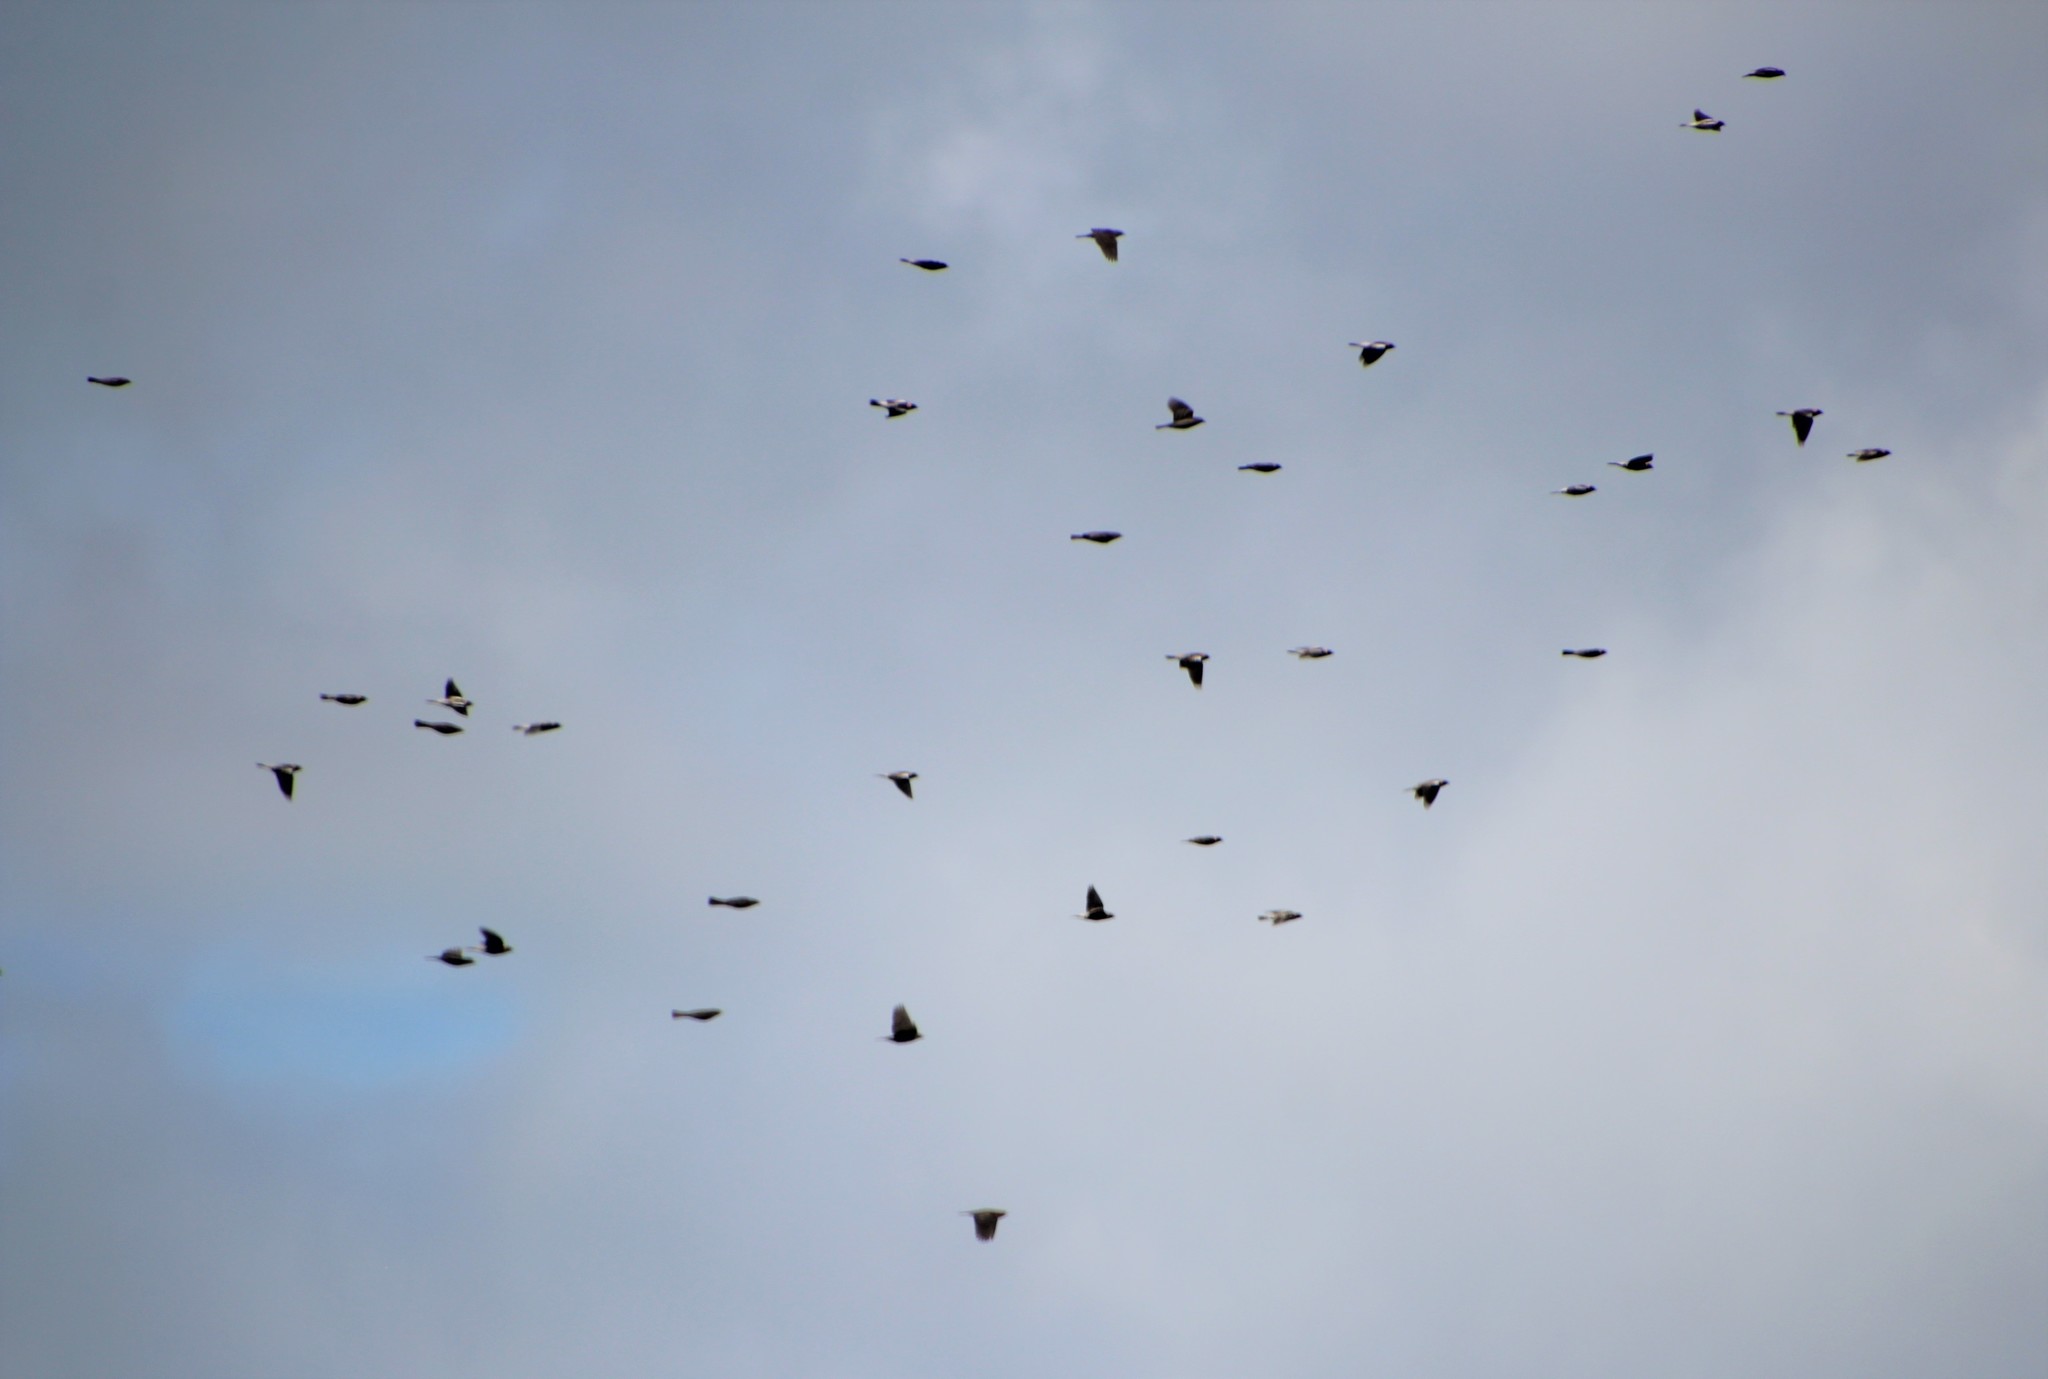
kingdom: Animalia
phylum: Chordata
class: Aves
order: Passeriformes
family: Icteridae
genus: Dolichonyx
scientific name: Dolichonyx oryzivorus
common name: Bobolink
